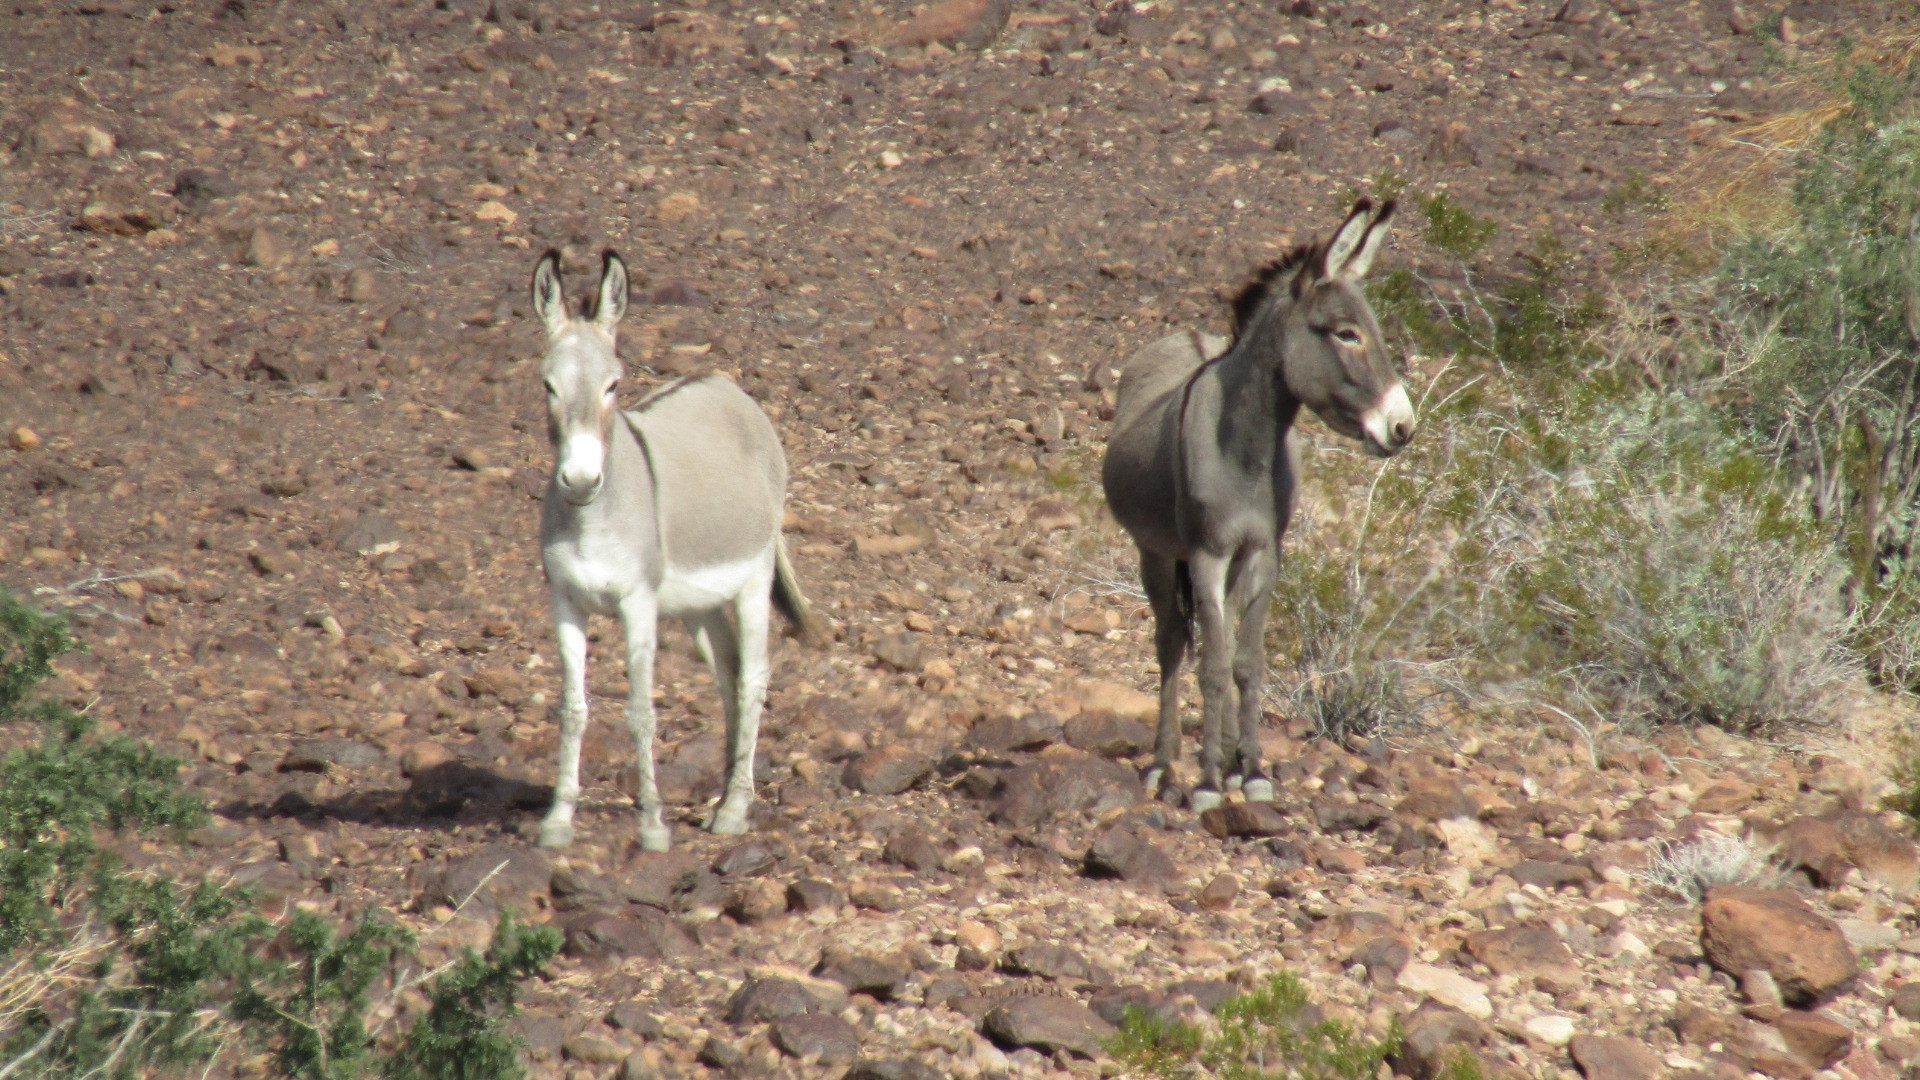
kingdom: Animalia
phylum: Chordata
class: Mammalia
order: Perissodactyla
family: Equidae
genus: Equus
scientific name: Equus asinus
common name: Ass
